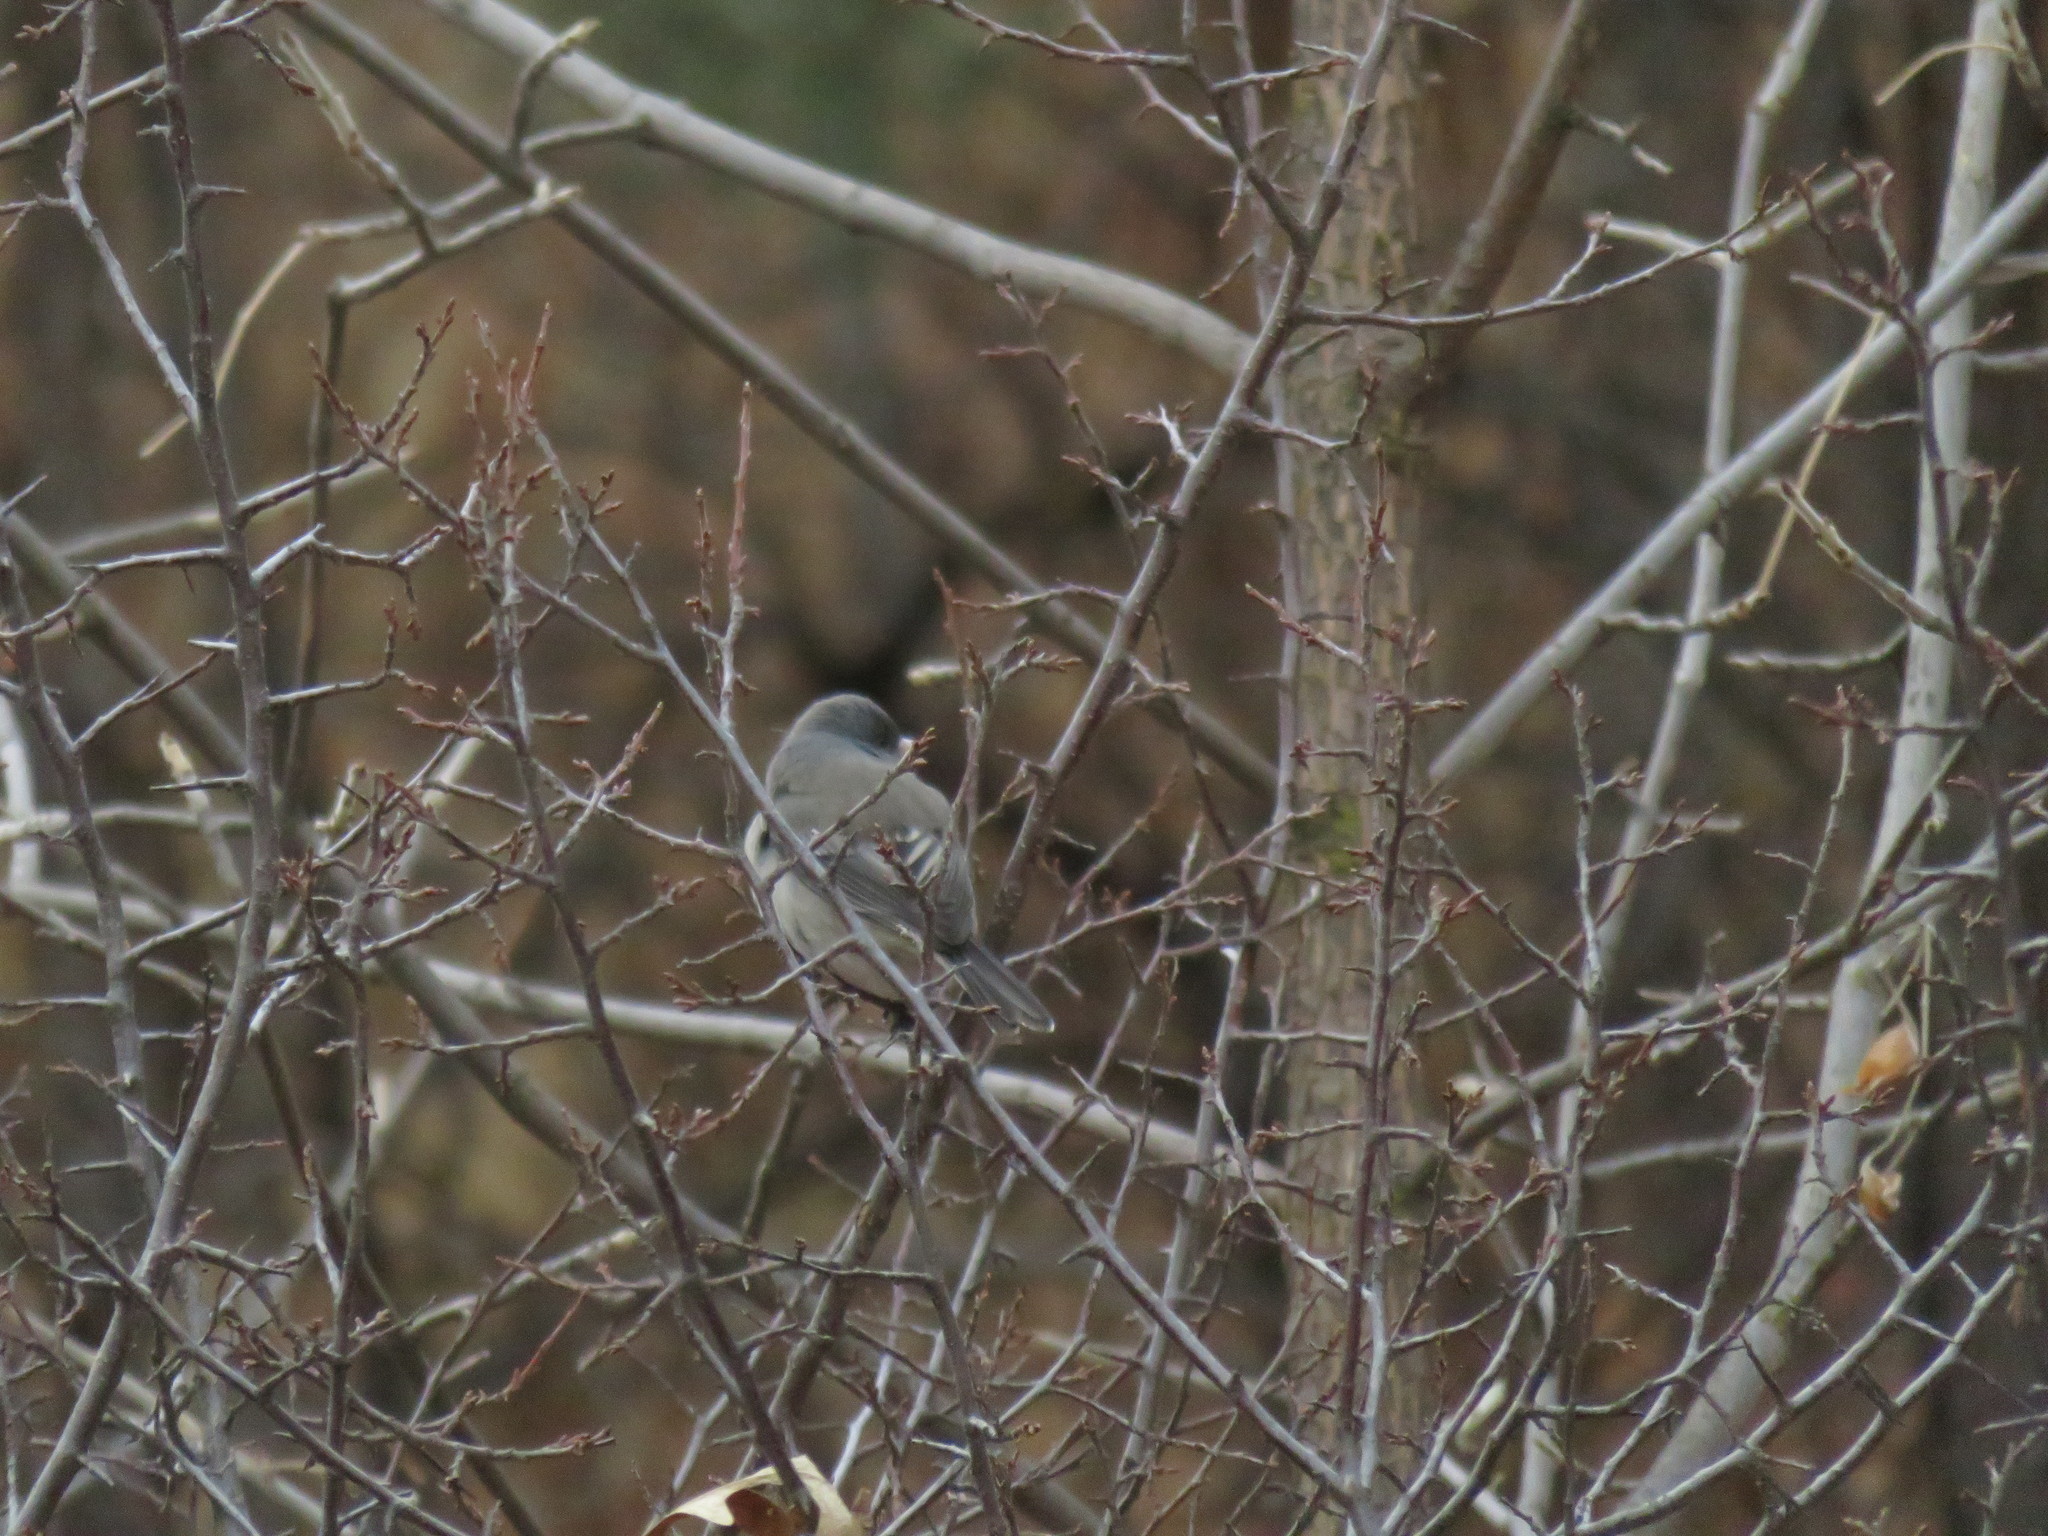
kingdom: Animalia
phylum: Chordata
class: Aves
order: Passeriformes
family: Passerellidae
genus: Junco
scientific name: Junco hyemalis
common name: Dark-eyed junco
